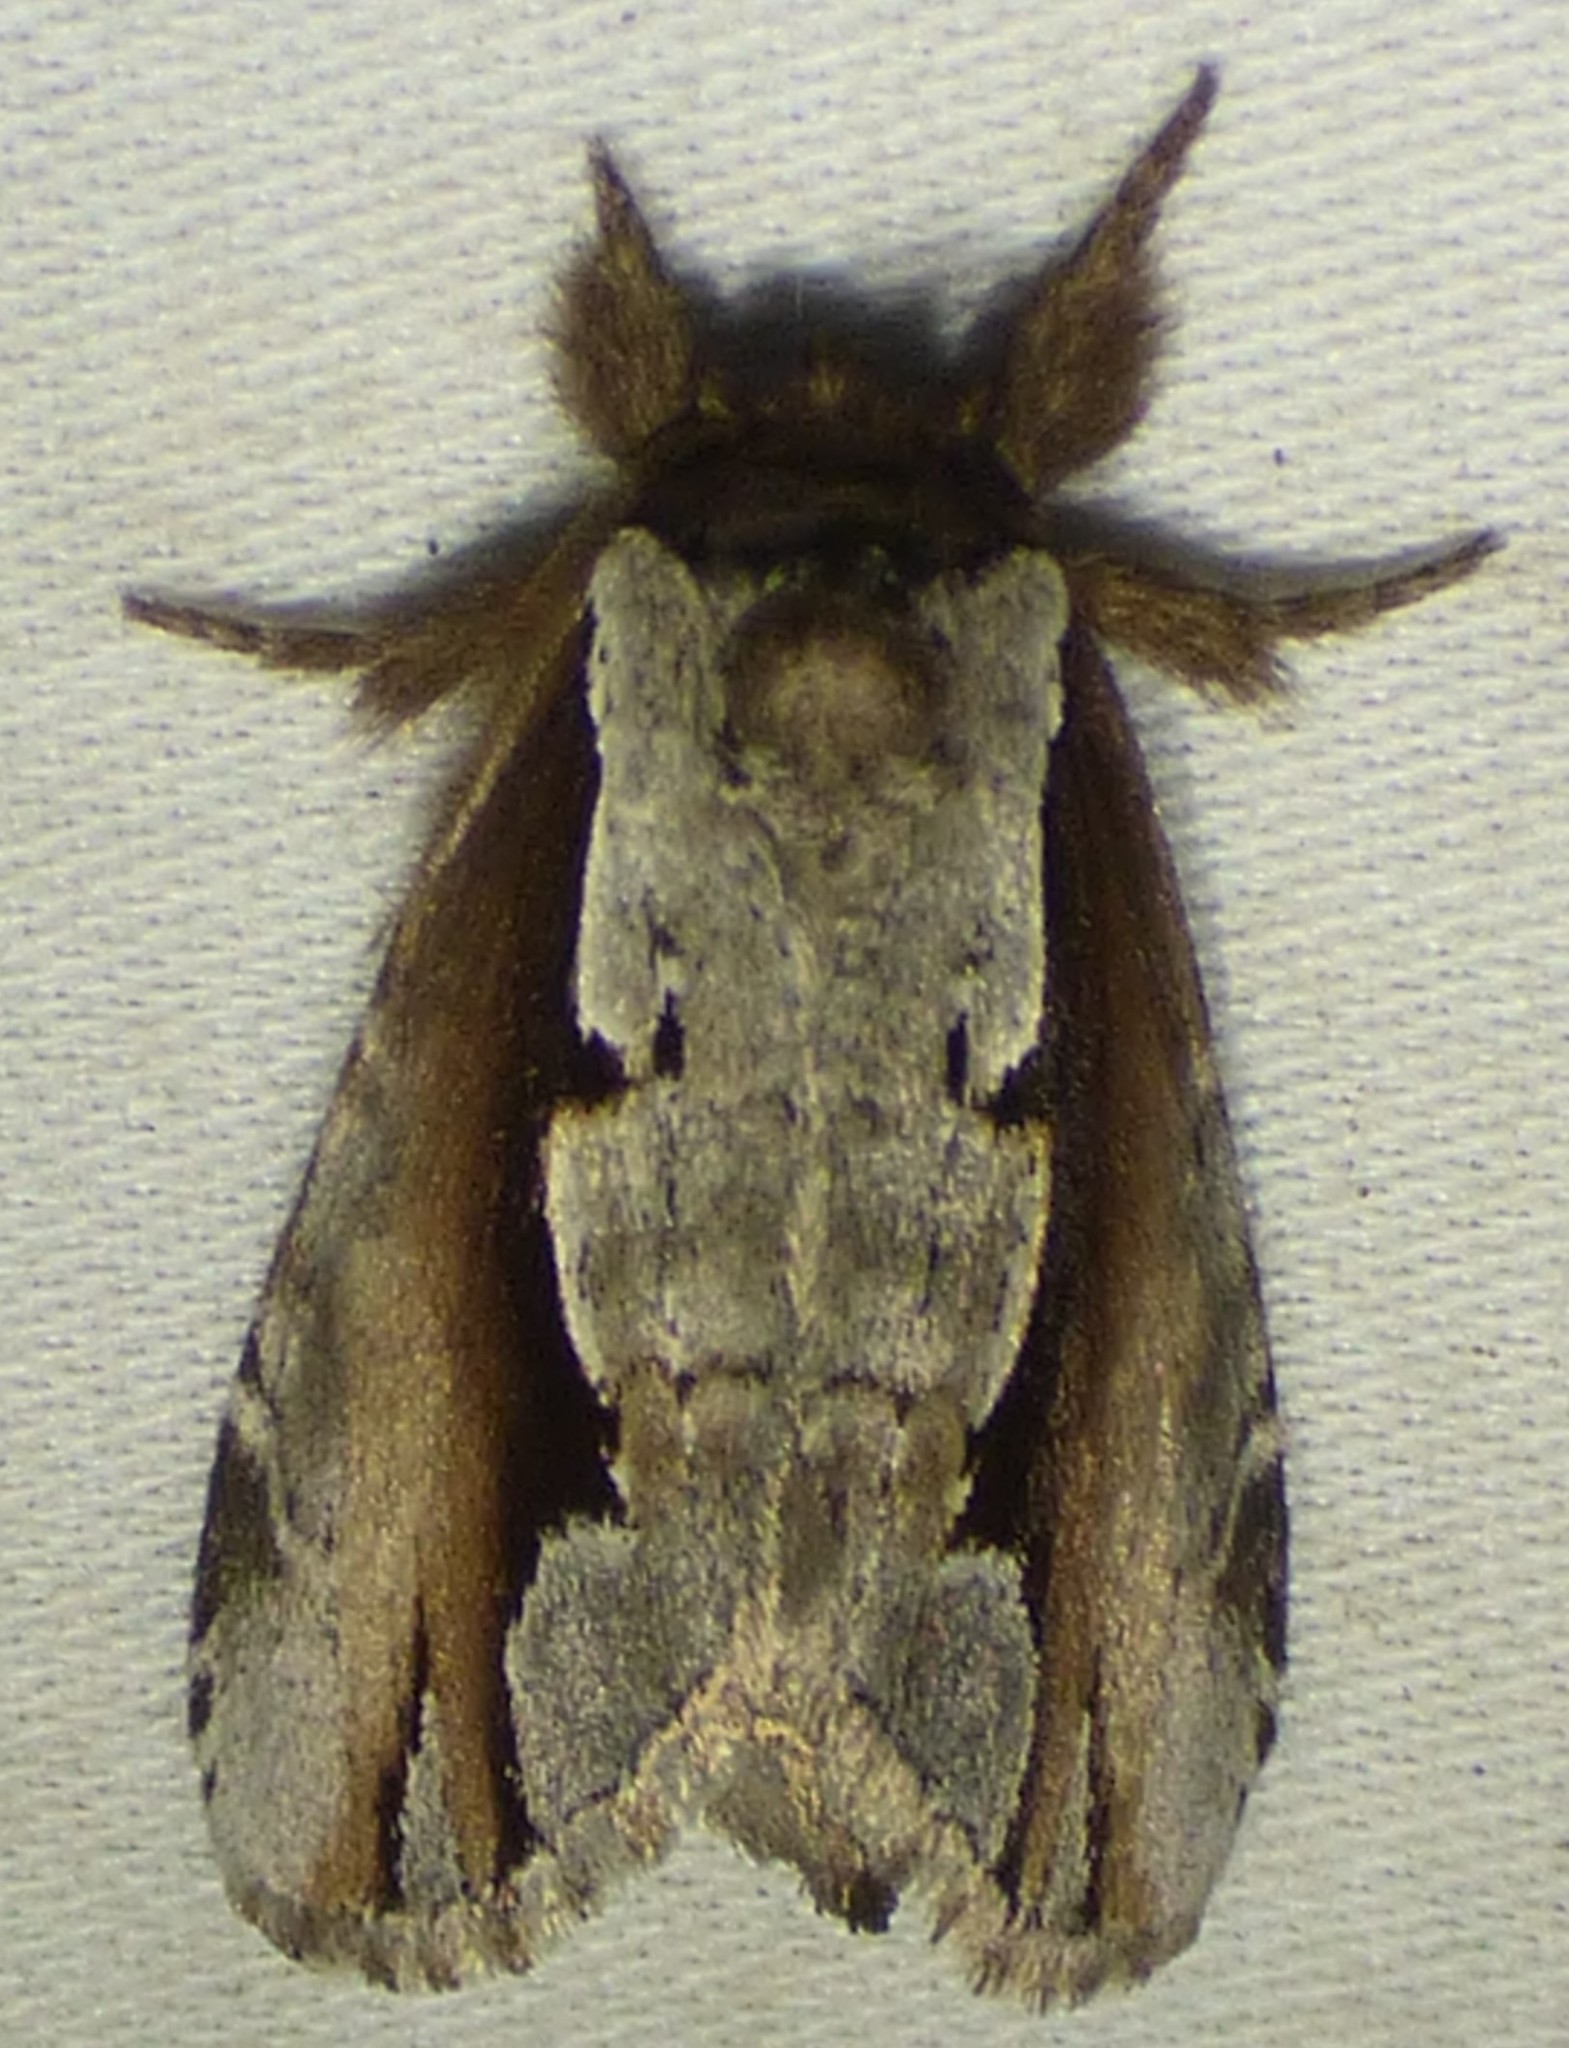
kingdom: Animalia
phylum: Arthropoda
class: Insecta
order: Lepidoptera
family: Notodontidae
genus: Nerice
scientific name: Nerice bidentata
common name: Double-toothed prominent
